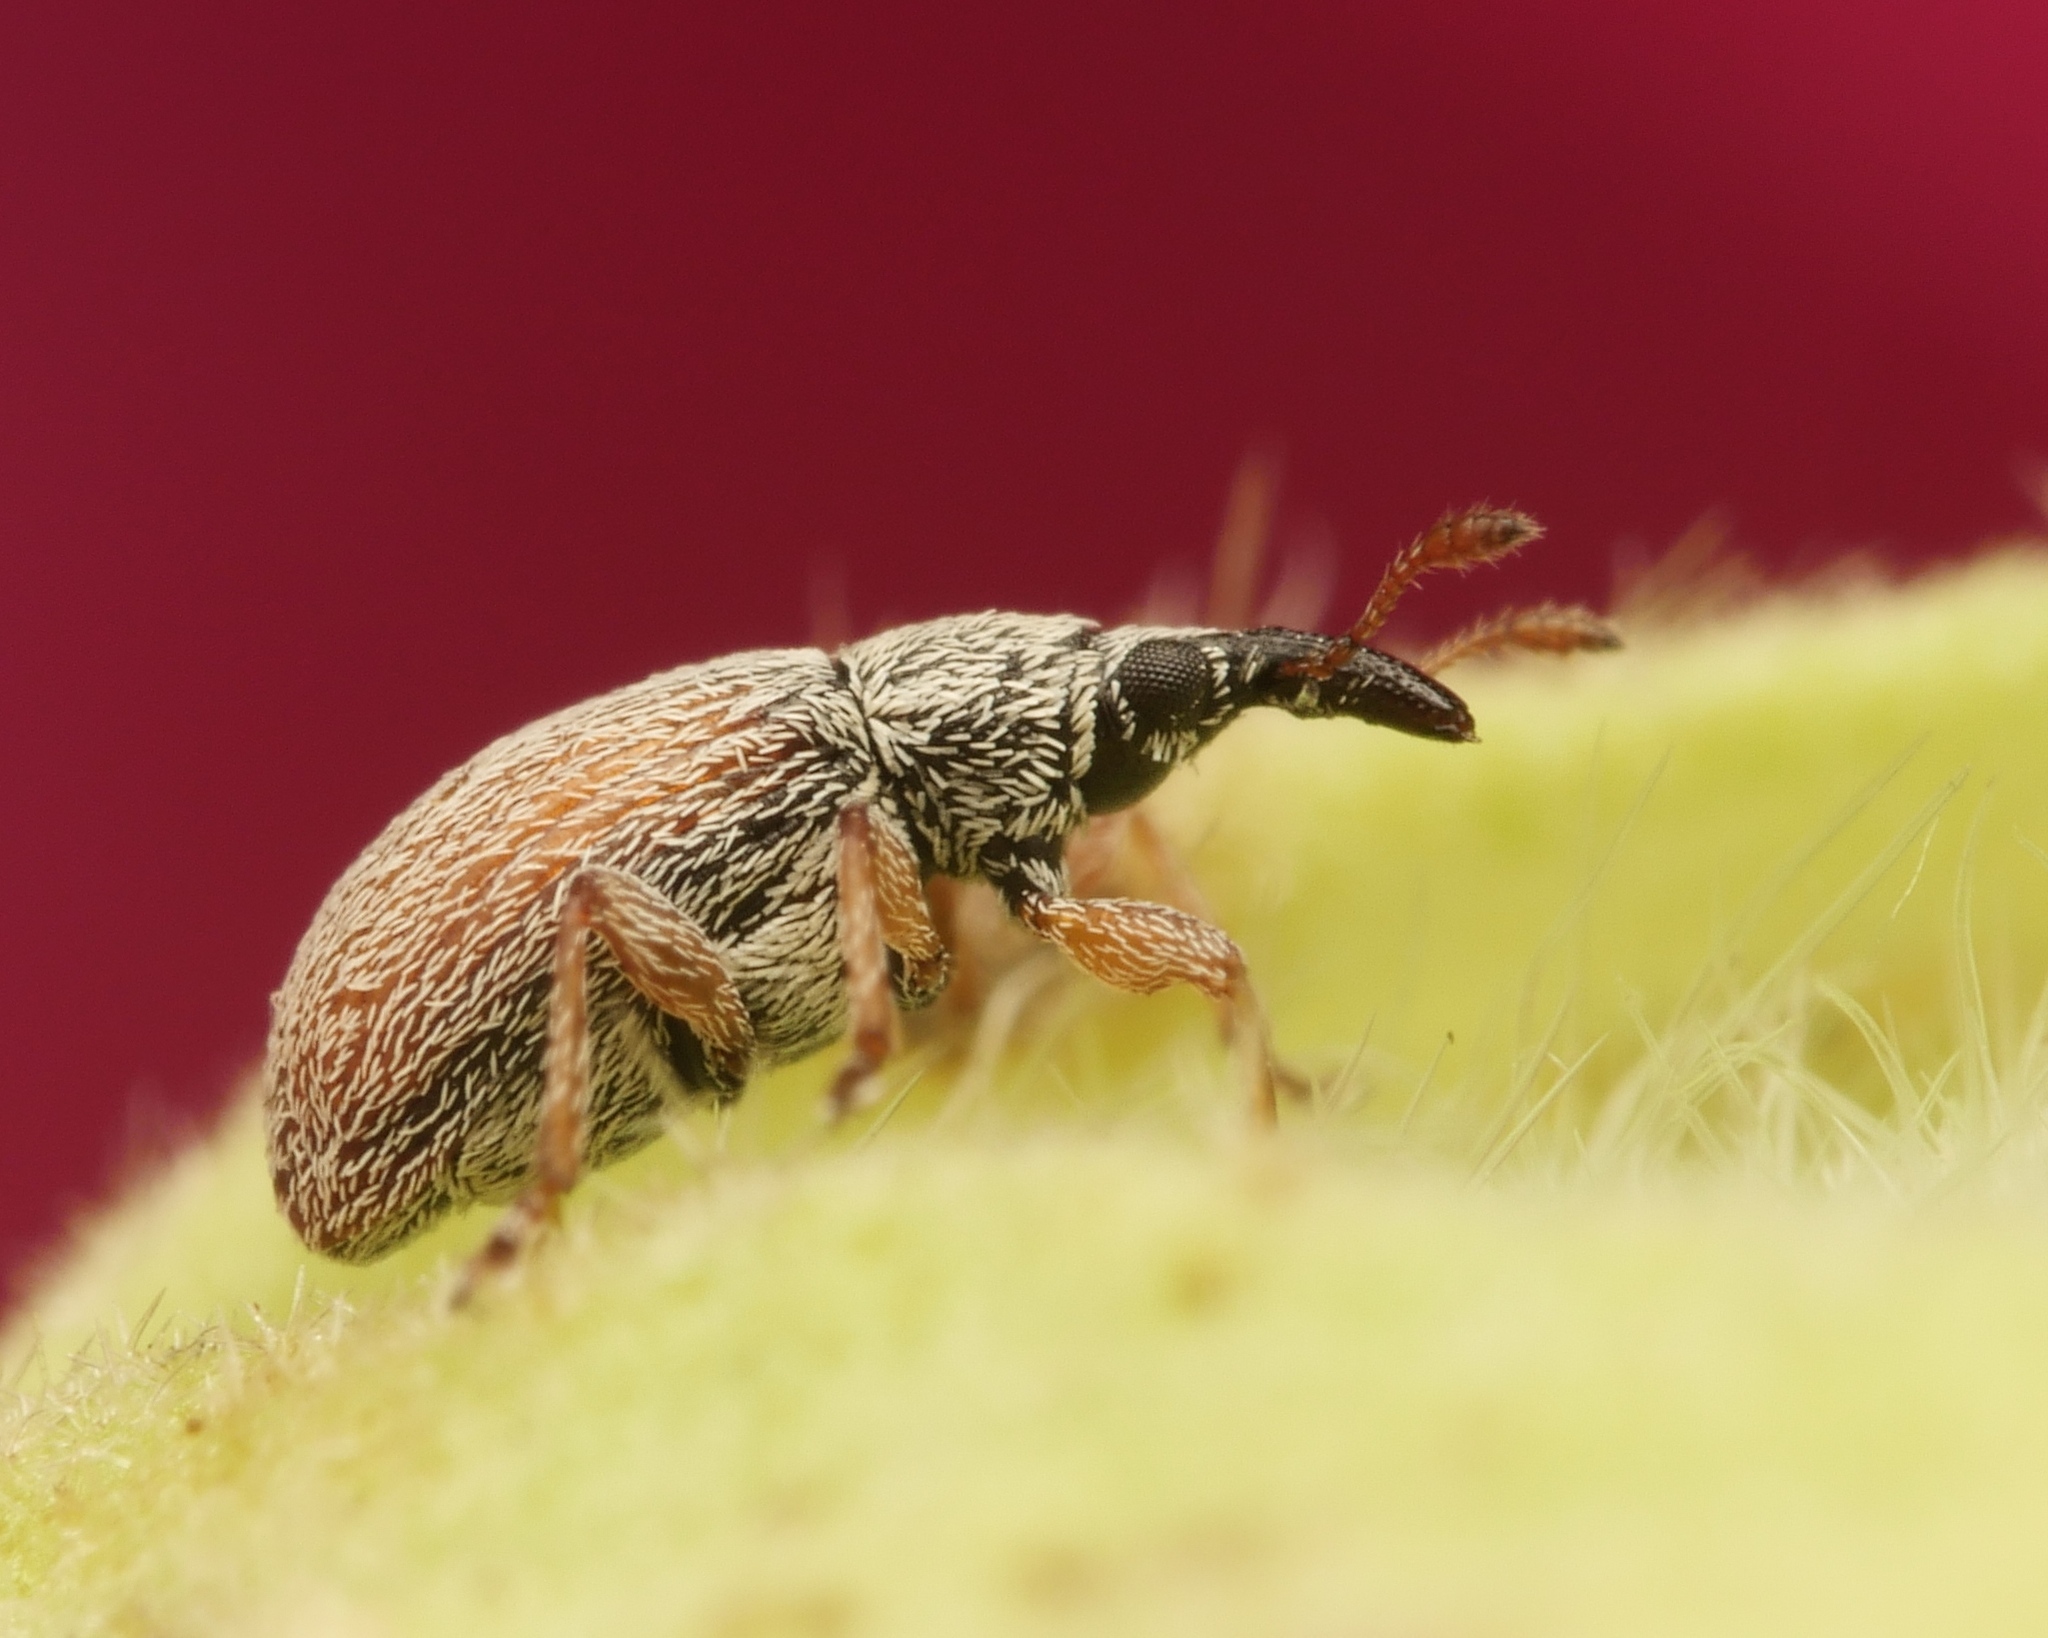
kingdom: Animalia
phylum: Arthropoda
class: Insecta
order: Coleoptera
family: Apionidae
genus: Malvapion
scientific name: Malvapion malvae
